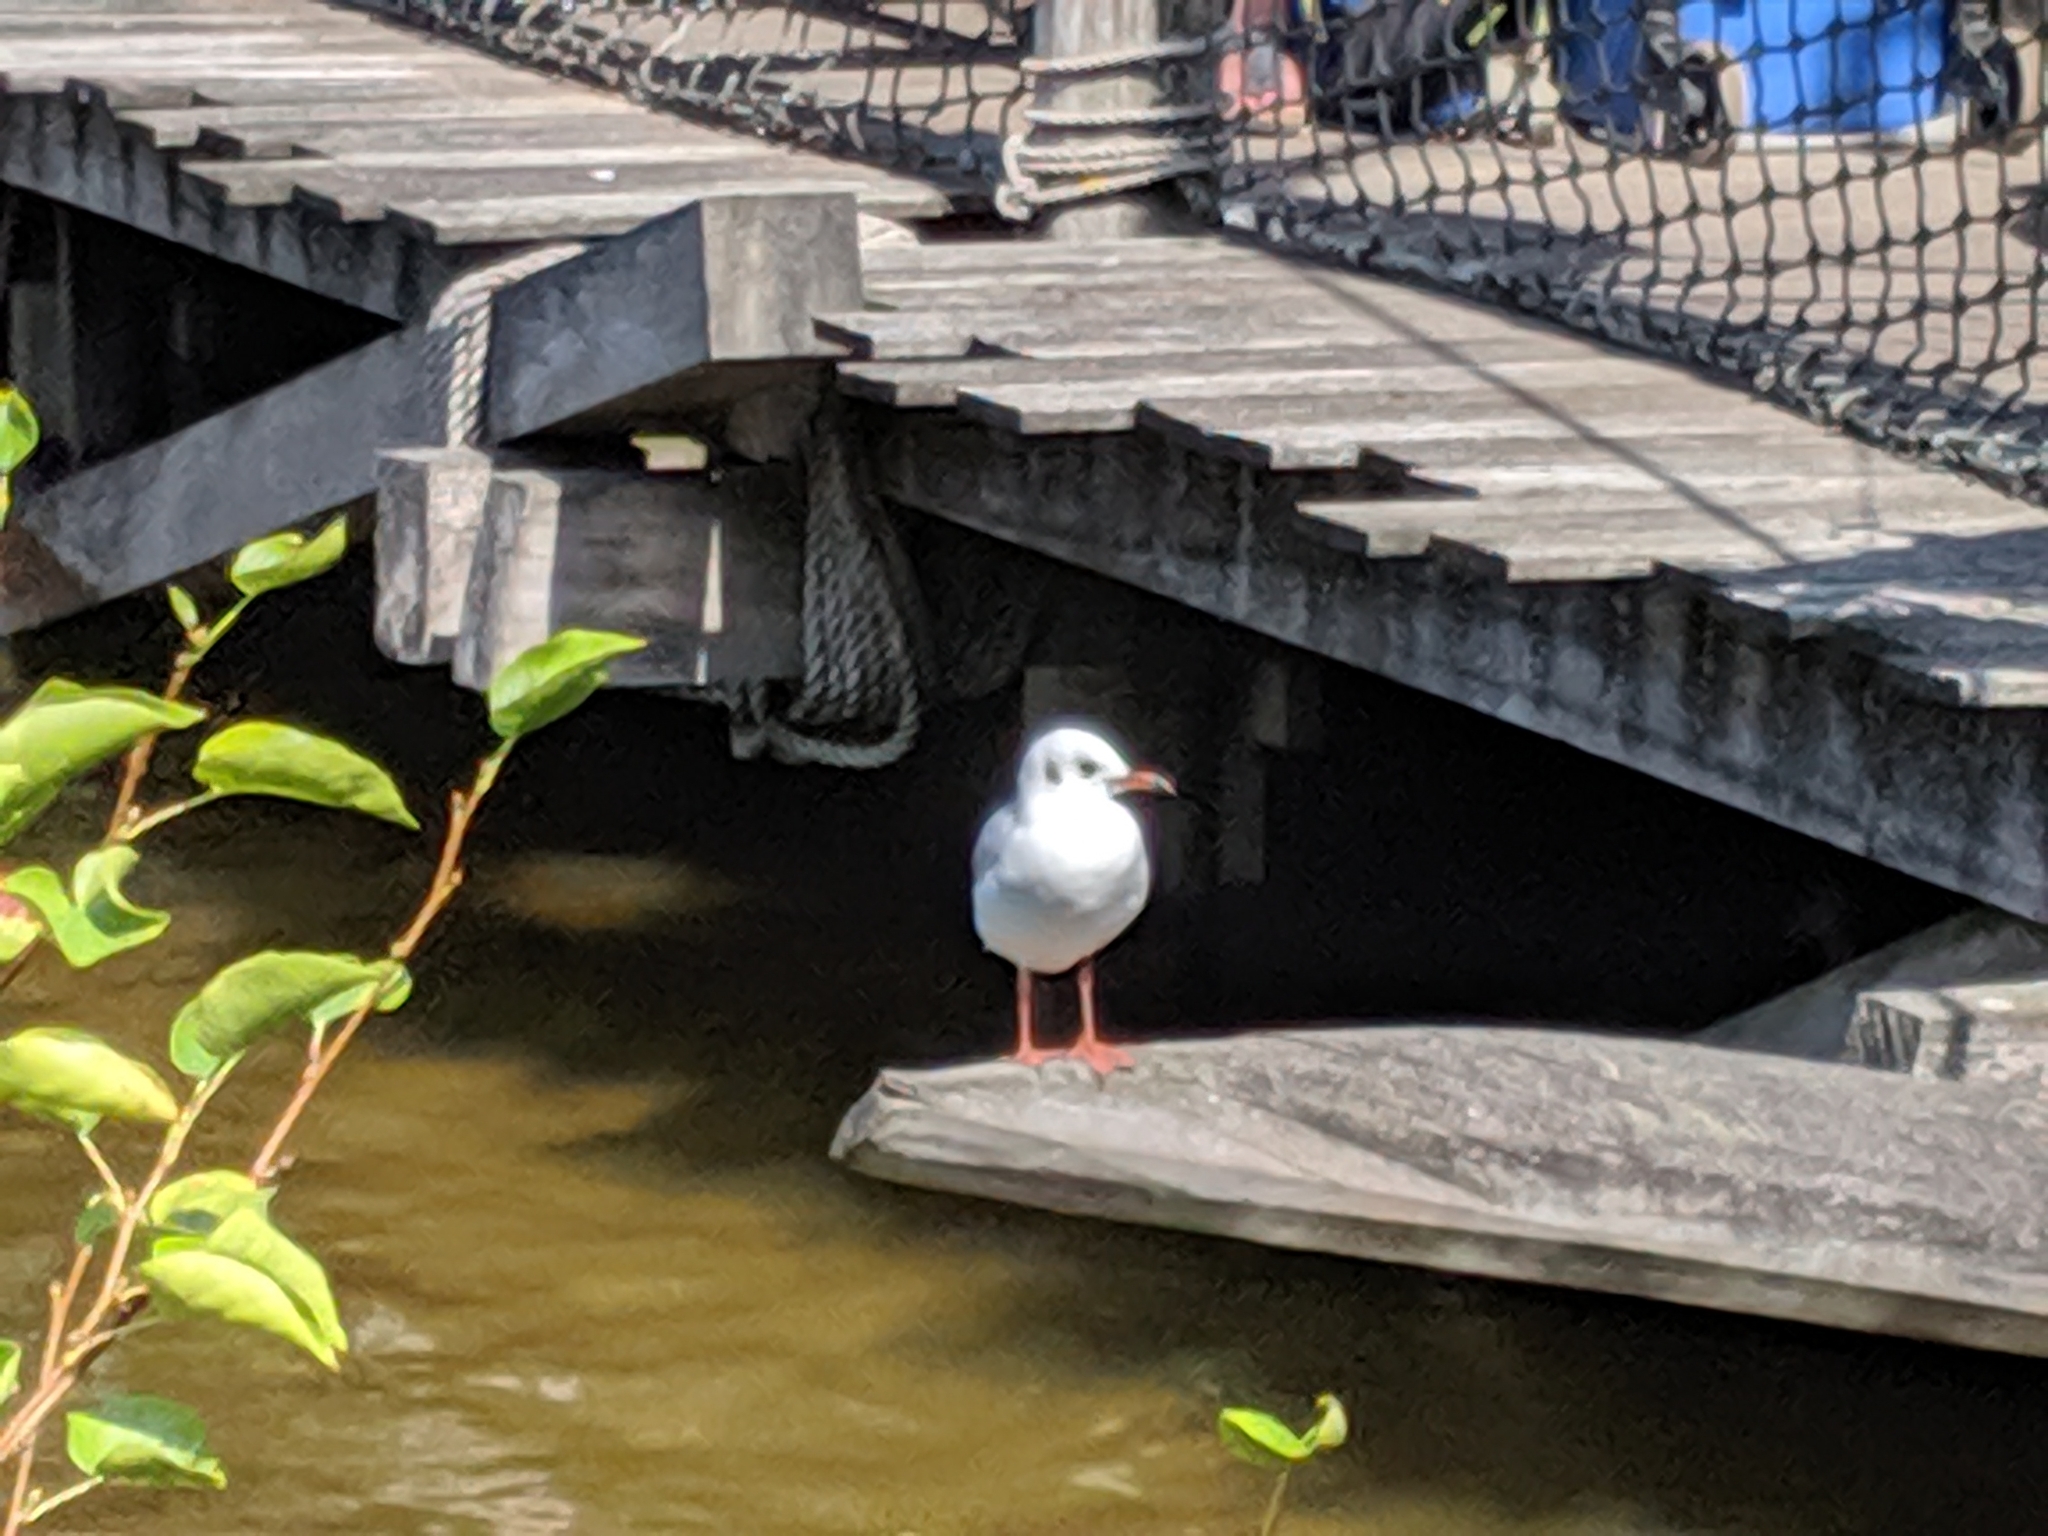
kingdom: Animalia
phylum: Chordata
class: Aves
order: Charadriiformes
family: Laridae
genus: Chroicocephalus
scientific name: Chroicocephalus ridibundus
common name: Black-headed gull
